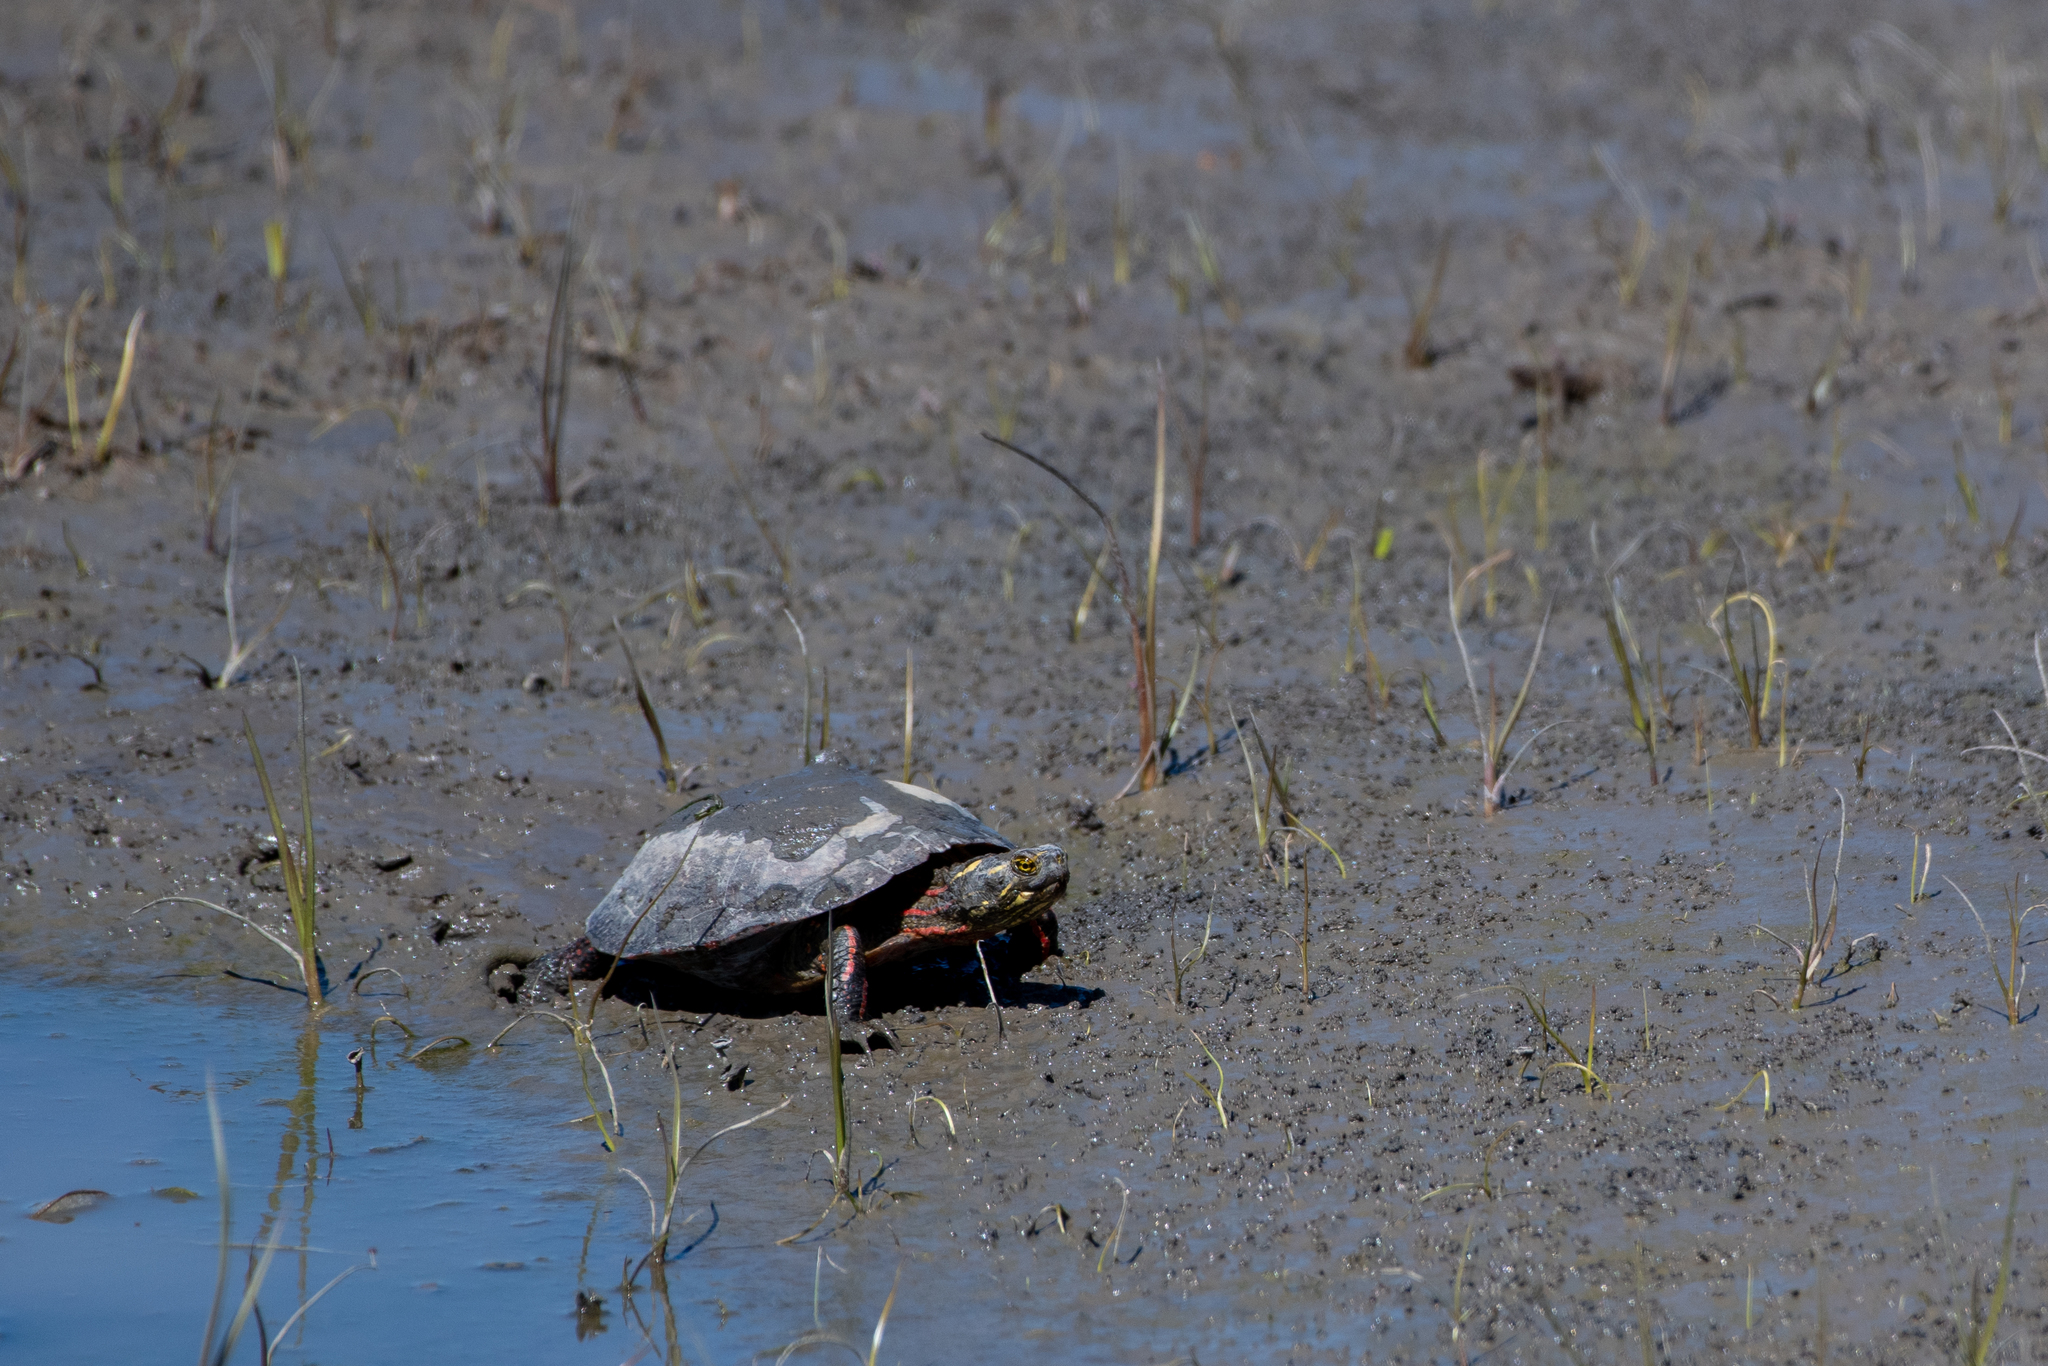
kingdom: Animalia
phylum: Chordata
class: Testudines
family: Emydidae
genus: Chrysemys
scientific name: Chrysemys picta
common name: Painted turtle
